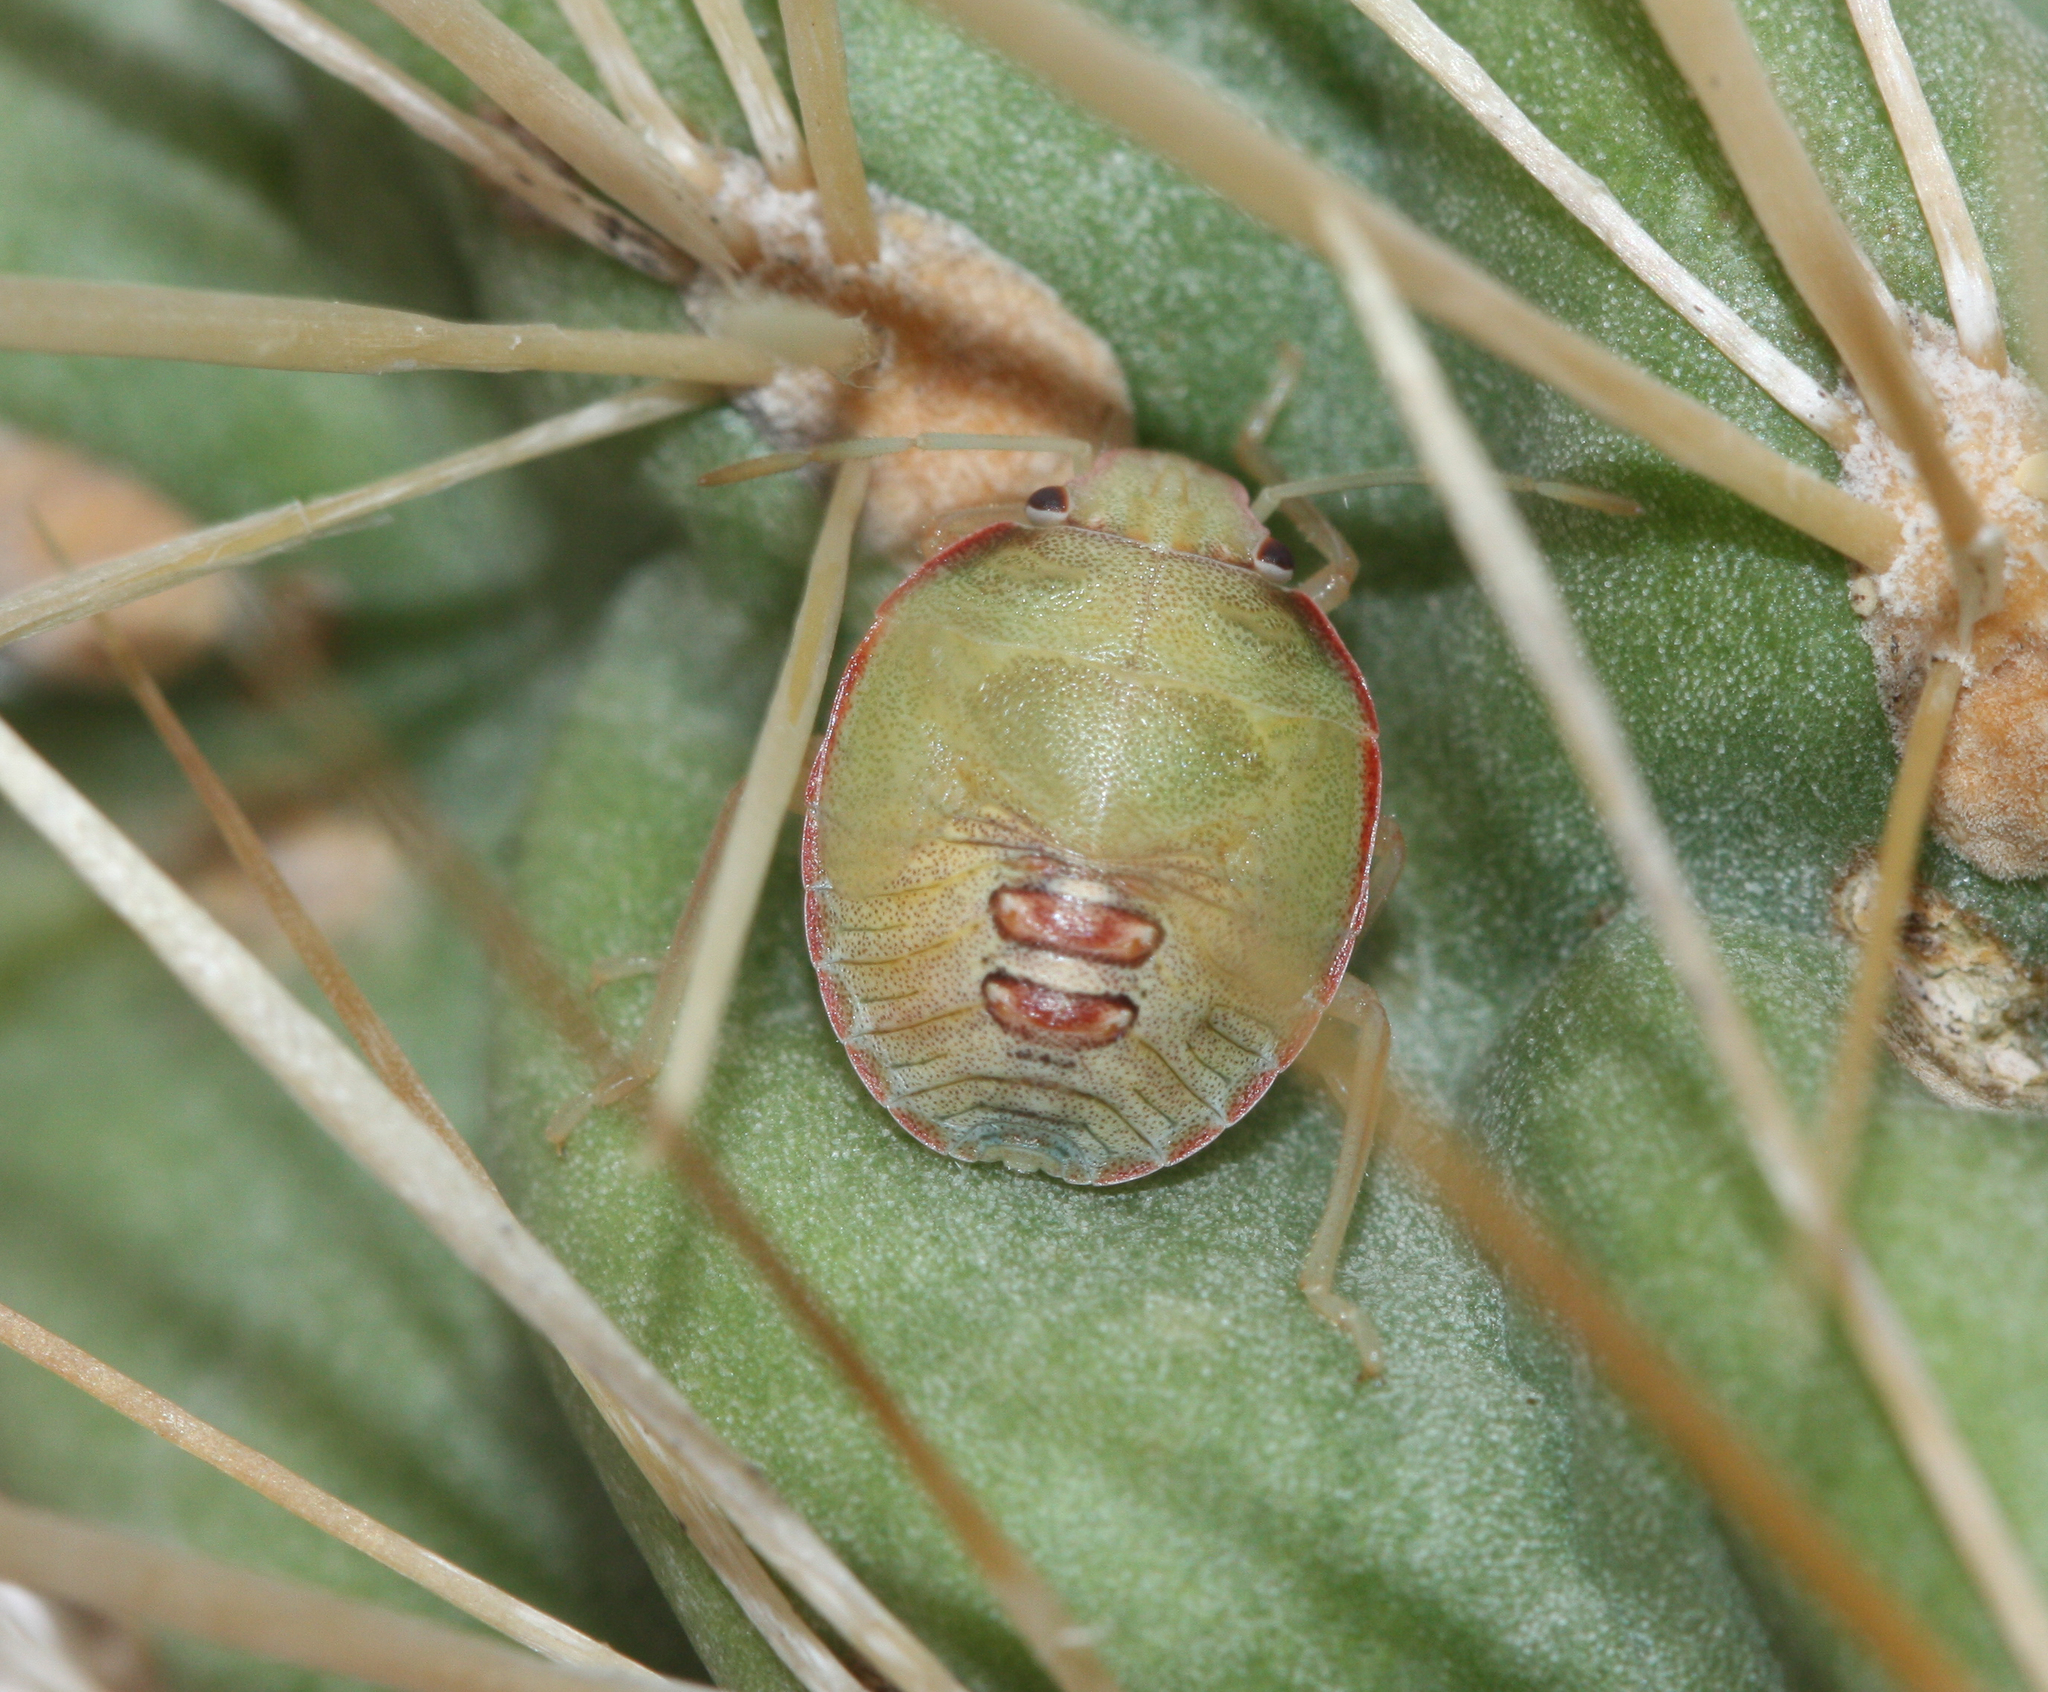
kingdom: Animalia
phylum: Arthropoda
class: Insecta
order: Hemiptera
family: Pentatomidae
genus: Chlorochroa
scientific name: Chlorochroa opuntiae
